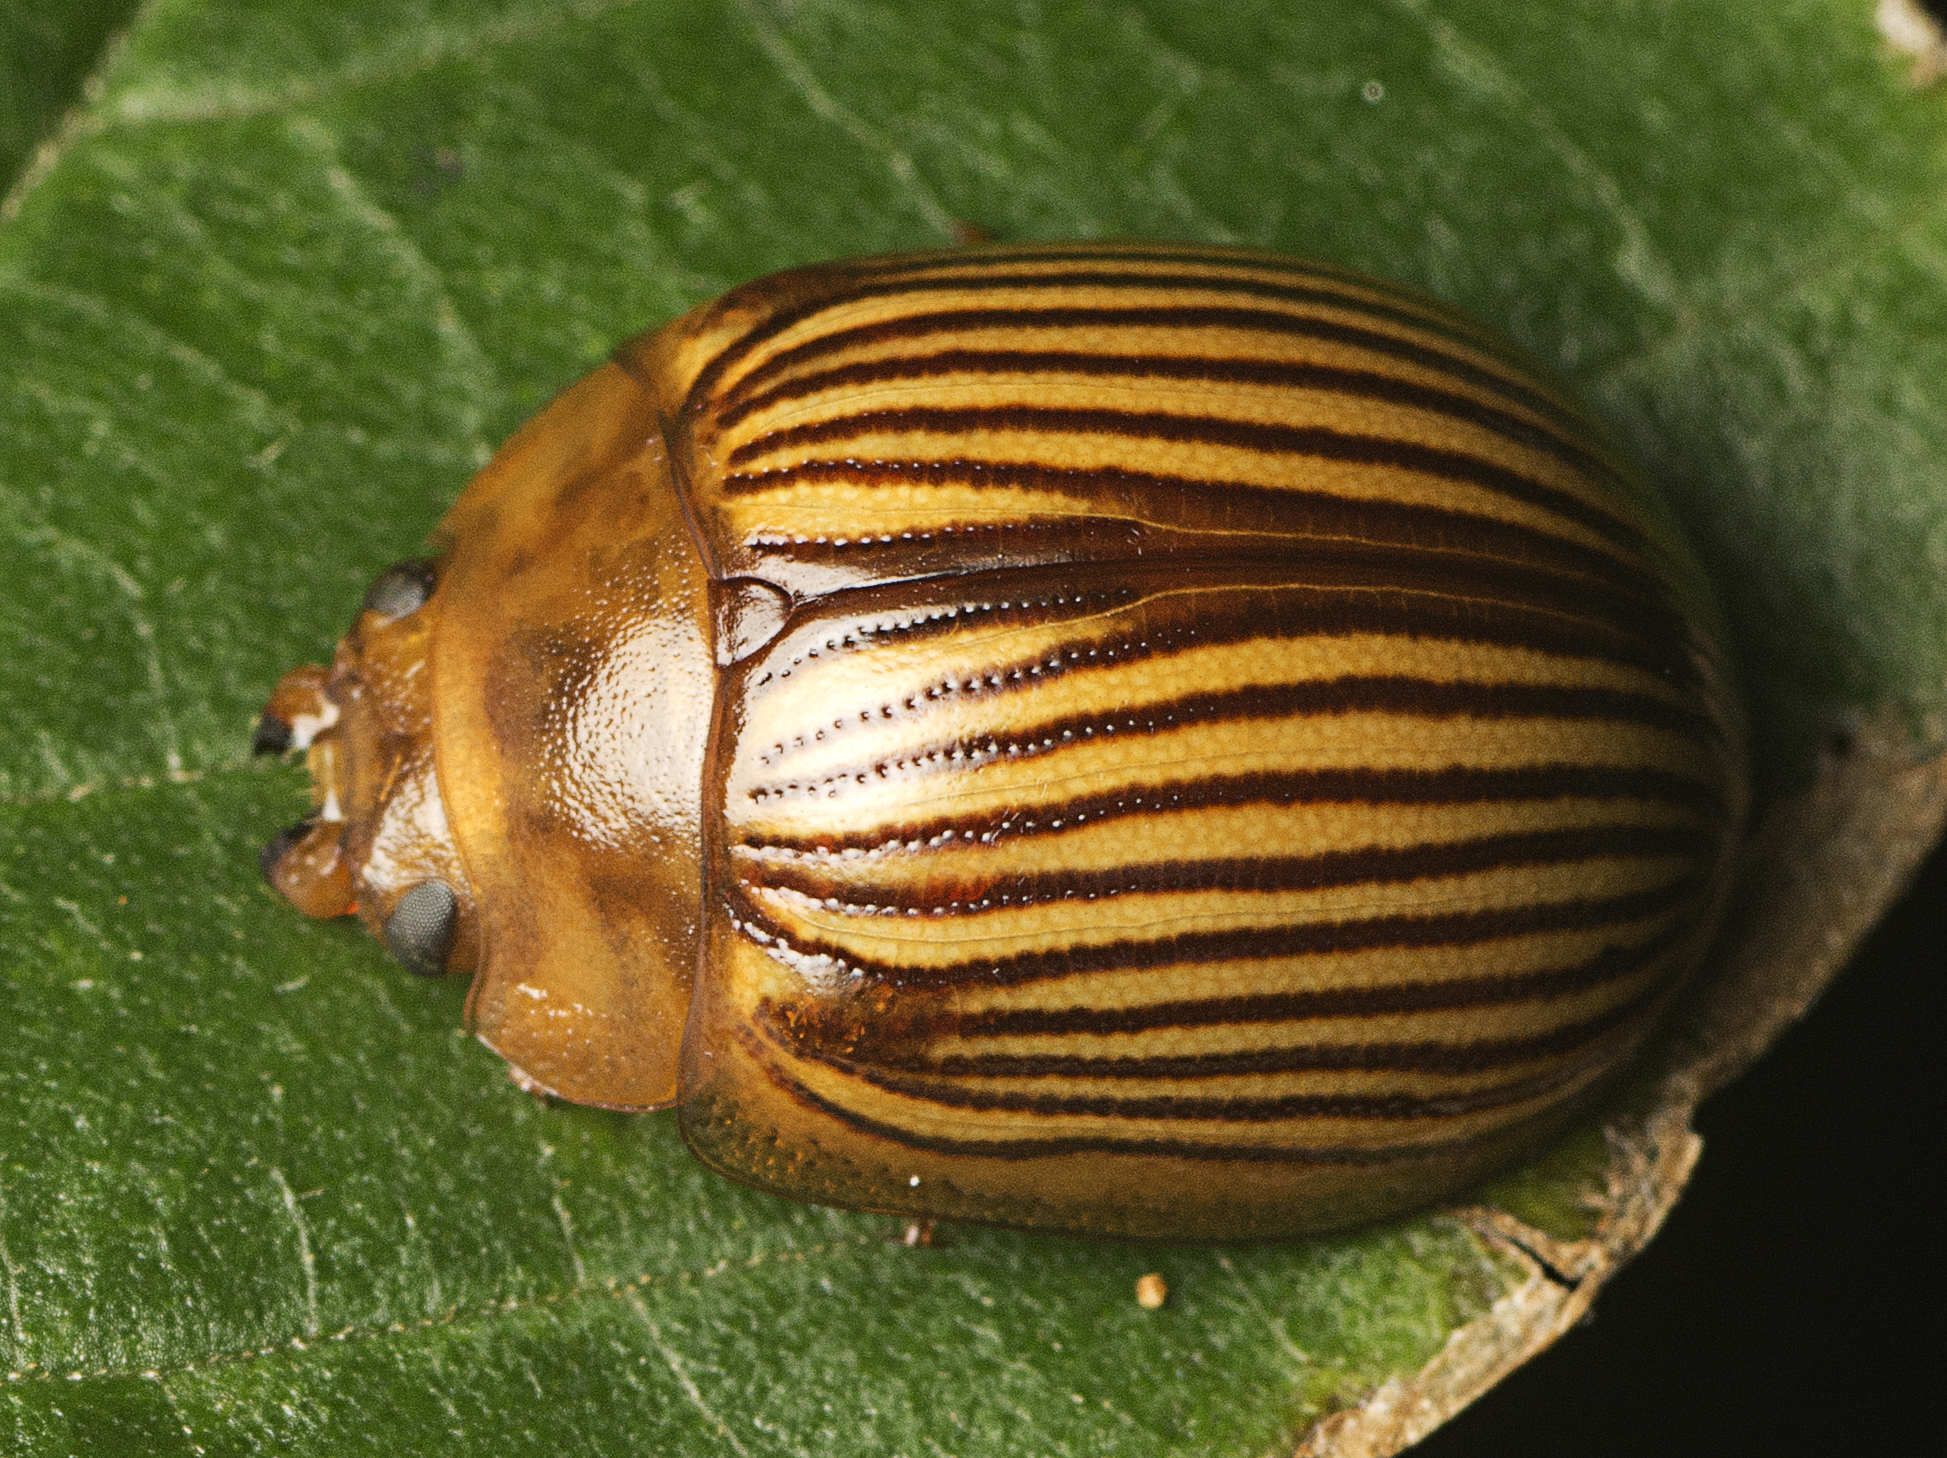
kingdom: Animalia
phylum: Arthropoda
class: Insecta
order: Coleoptera
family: Chrysomelidae
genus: Paropsisterna
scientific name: Paropsisterna
